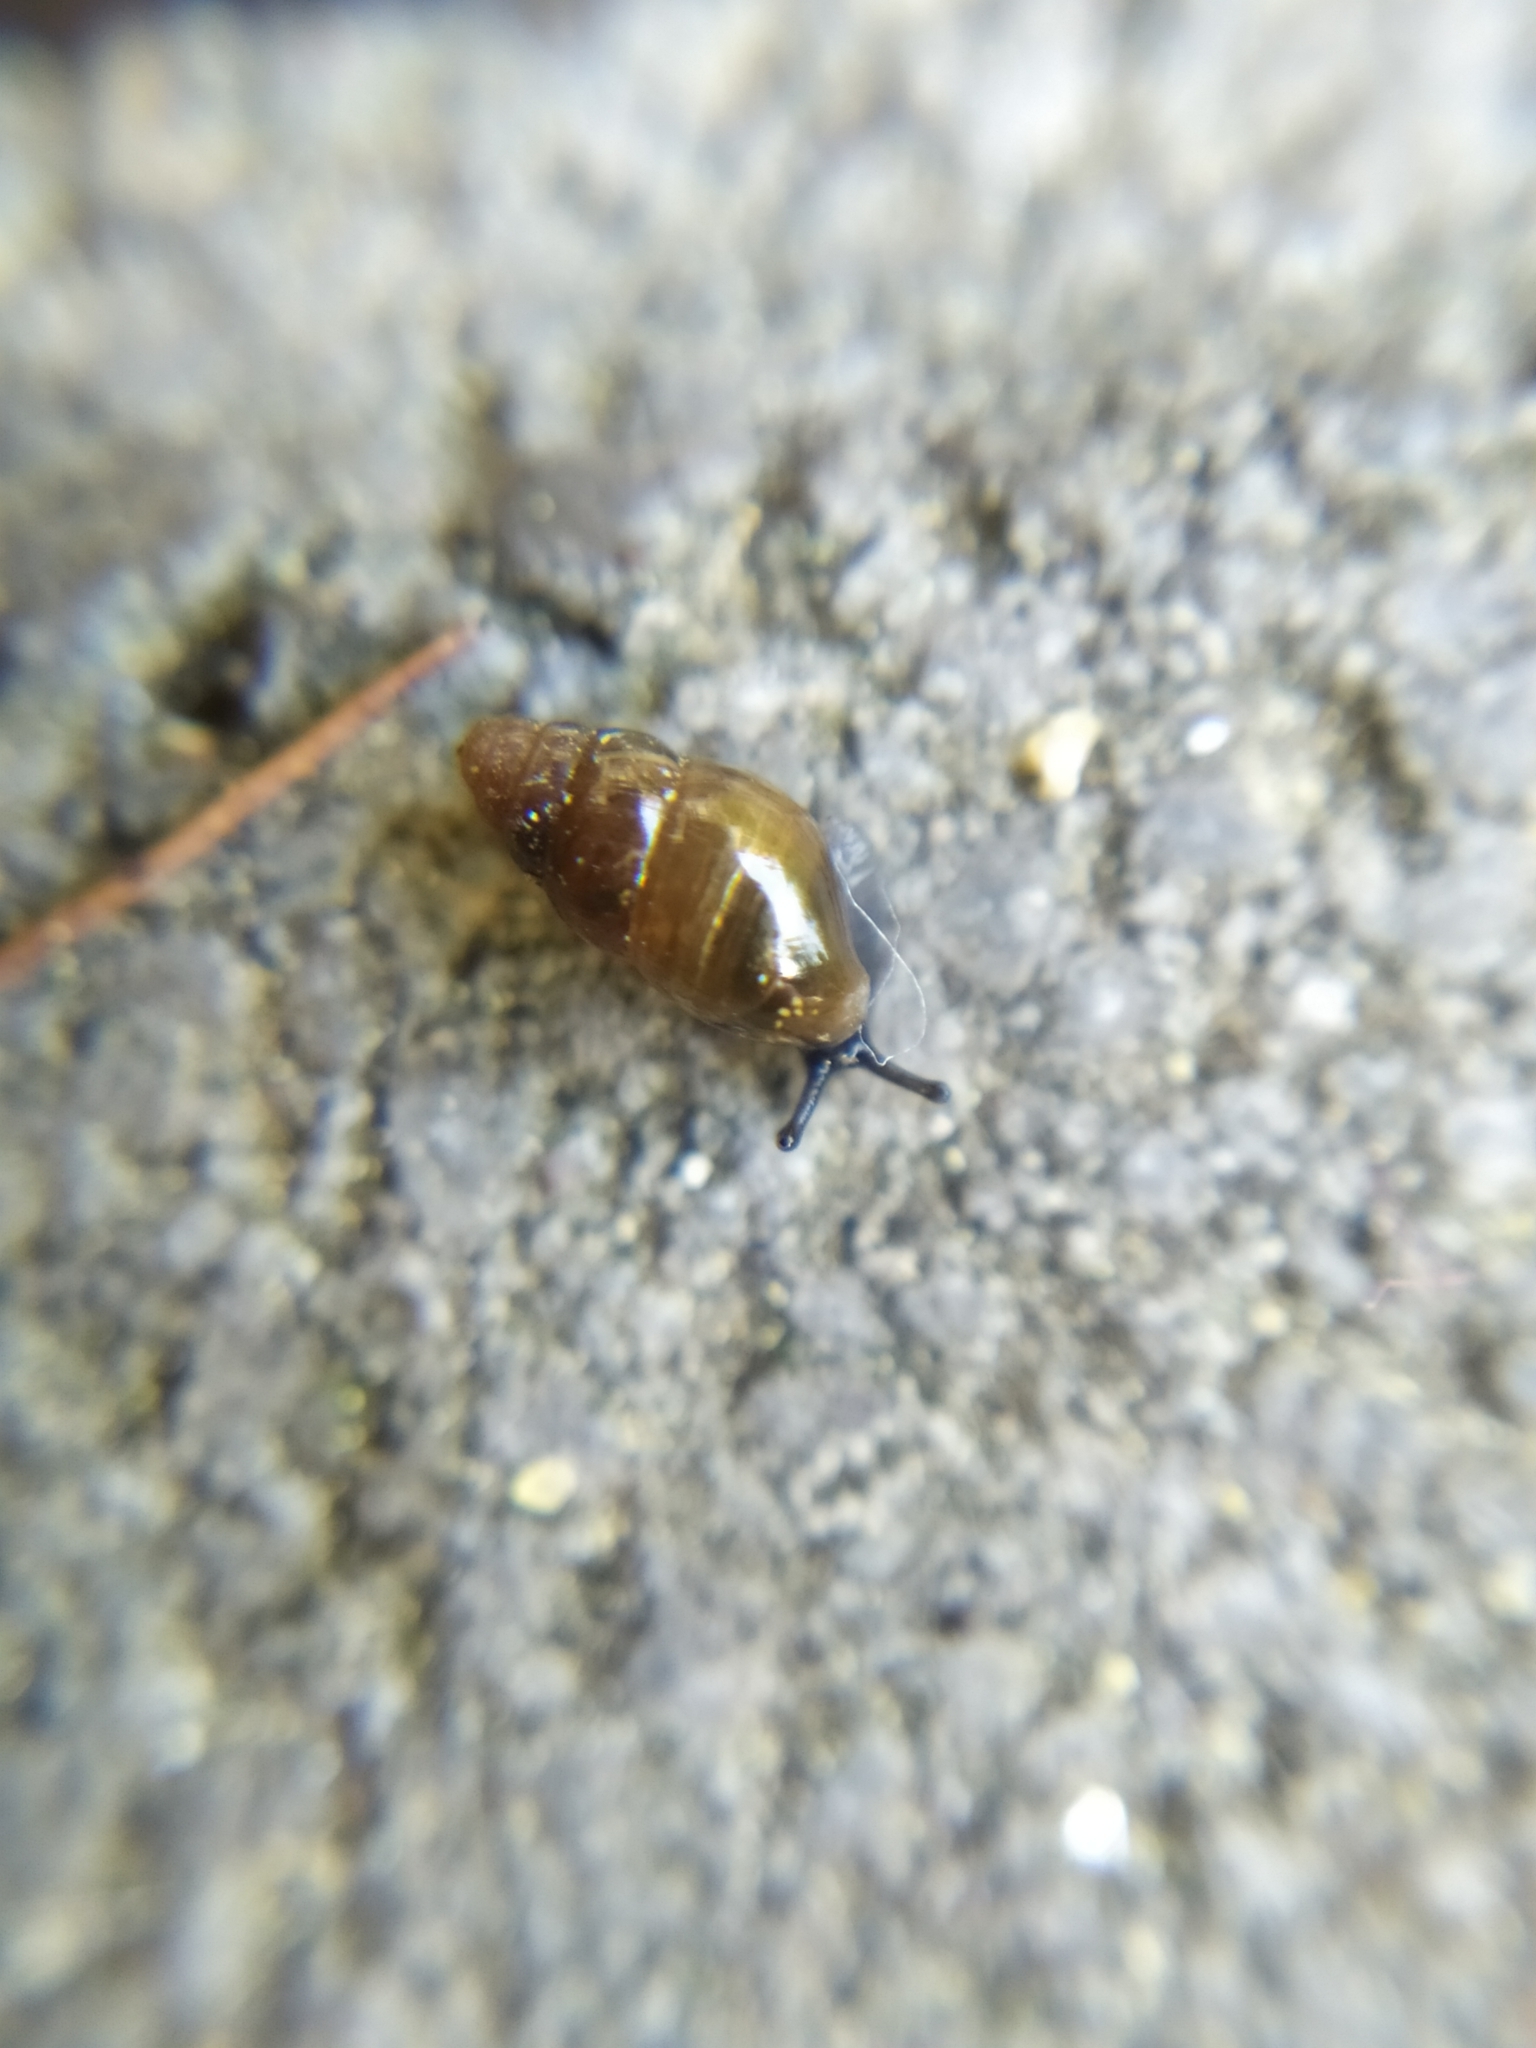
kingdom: Animalia
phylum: Mollusca
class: Gastropoda
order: Stylommatophora
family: Cochlicopidae
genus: Cochlicopa
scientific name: Cochlicopa lubrica
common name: Glossy pillar snail
